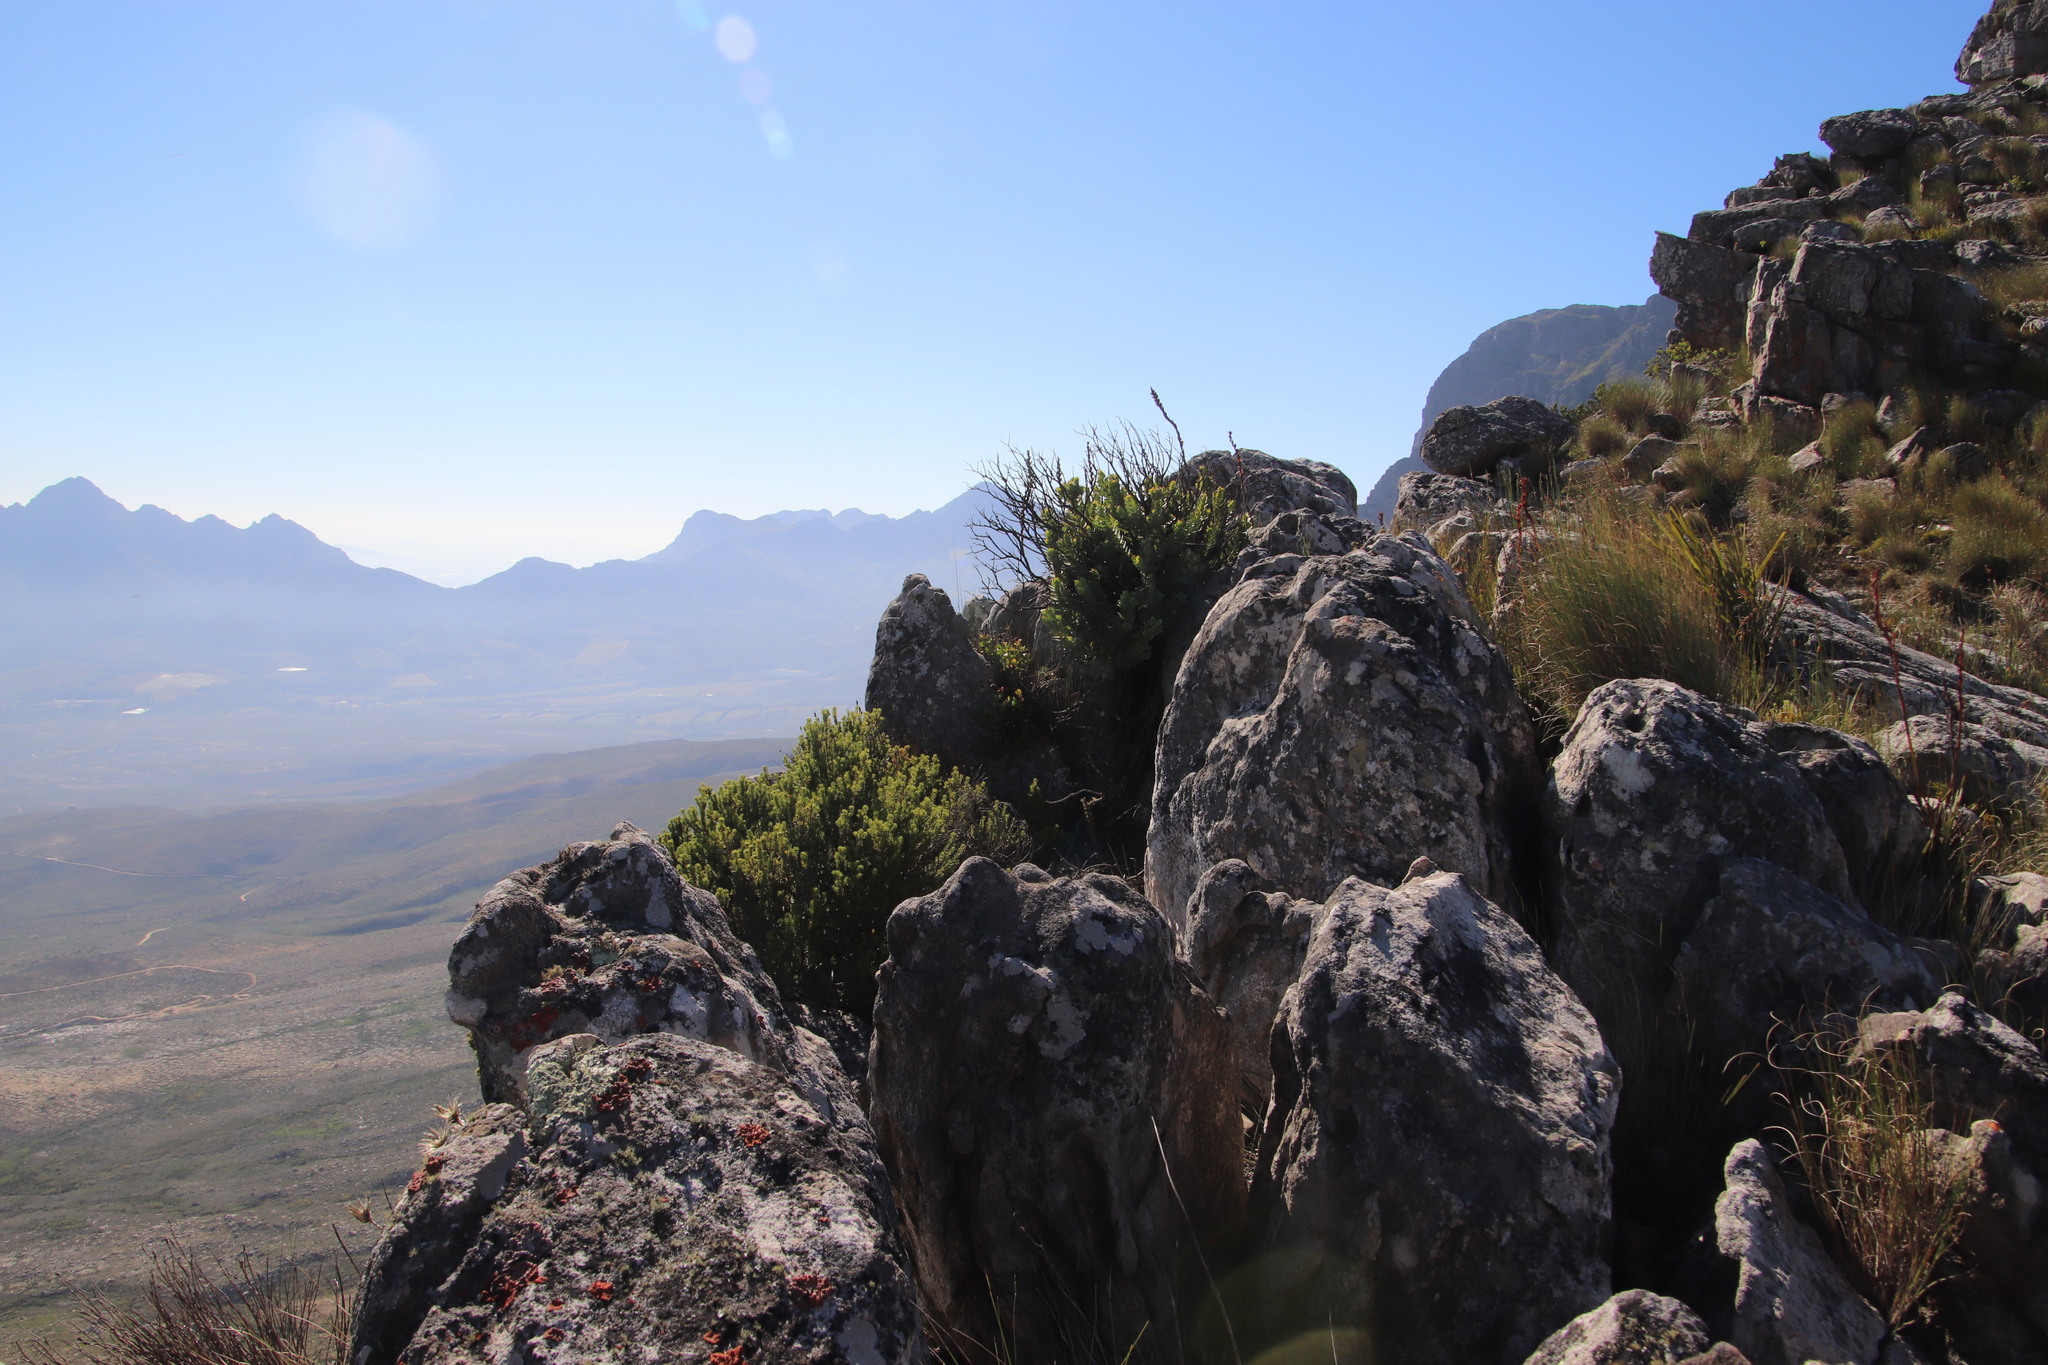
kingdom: Plantae
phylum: Tracheophyta
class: Magnoliopsida
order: Santalales
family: Santalaceae
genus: Osyris
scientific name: Osyris compressa
